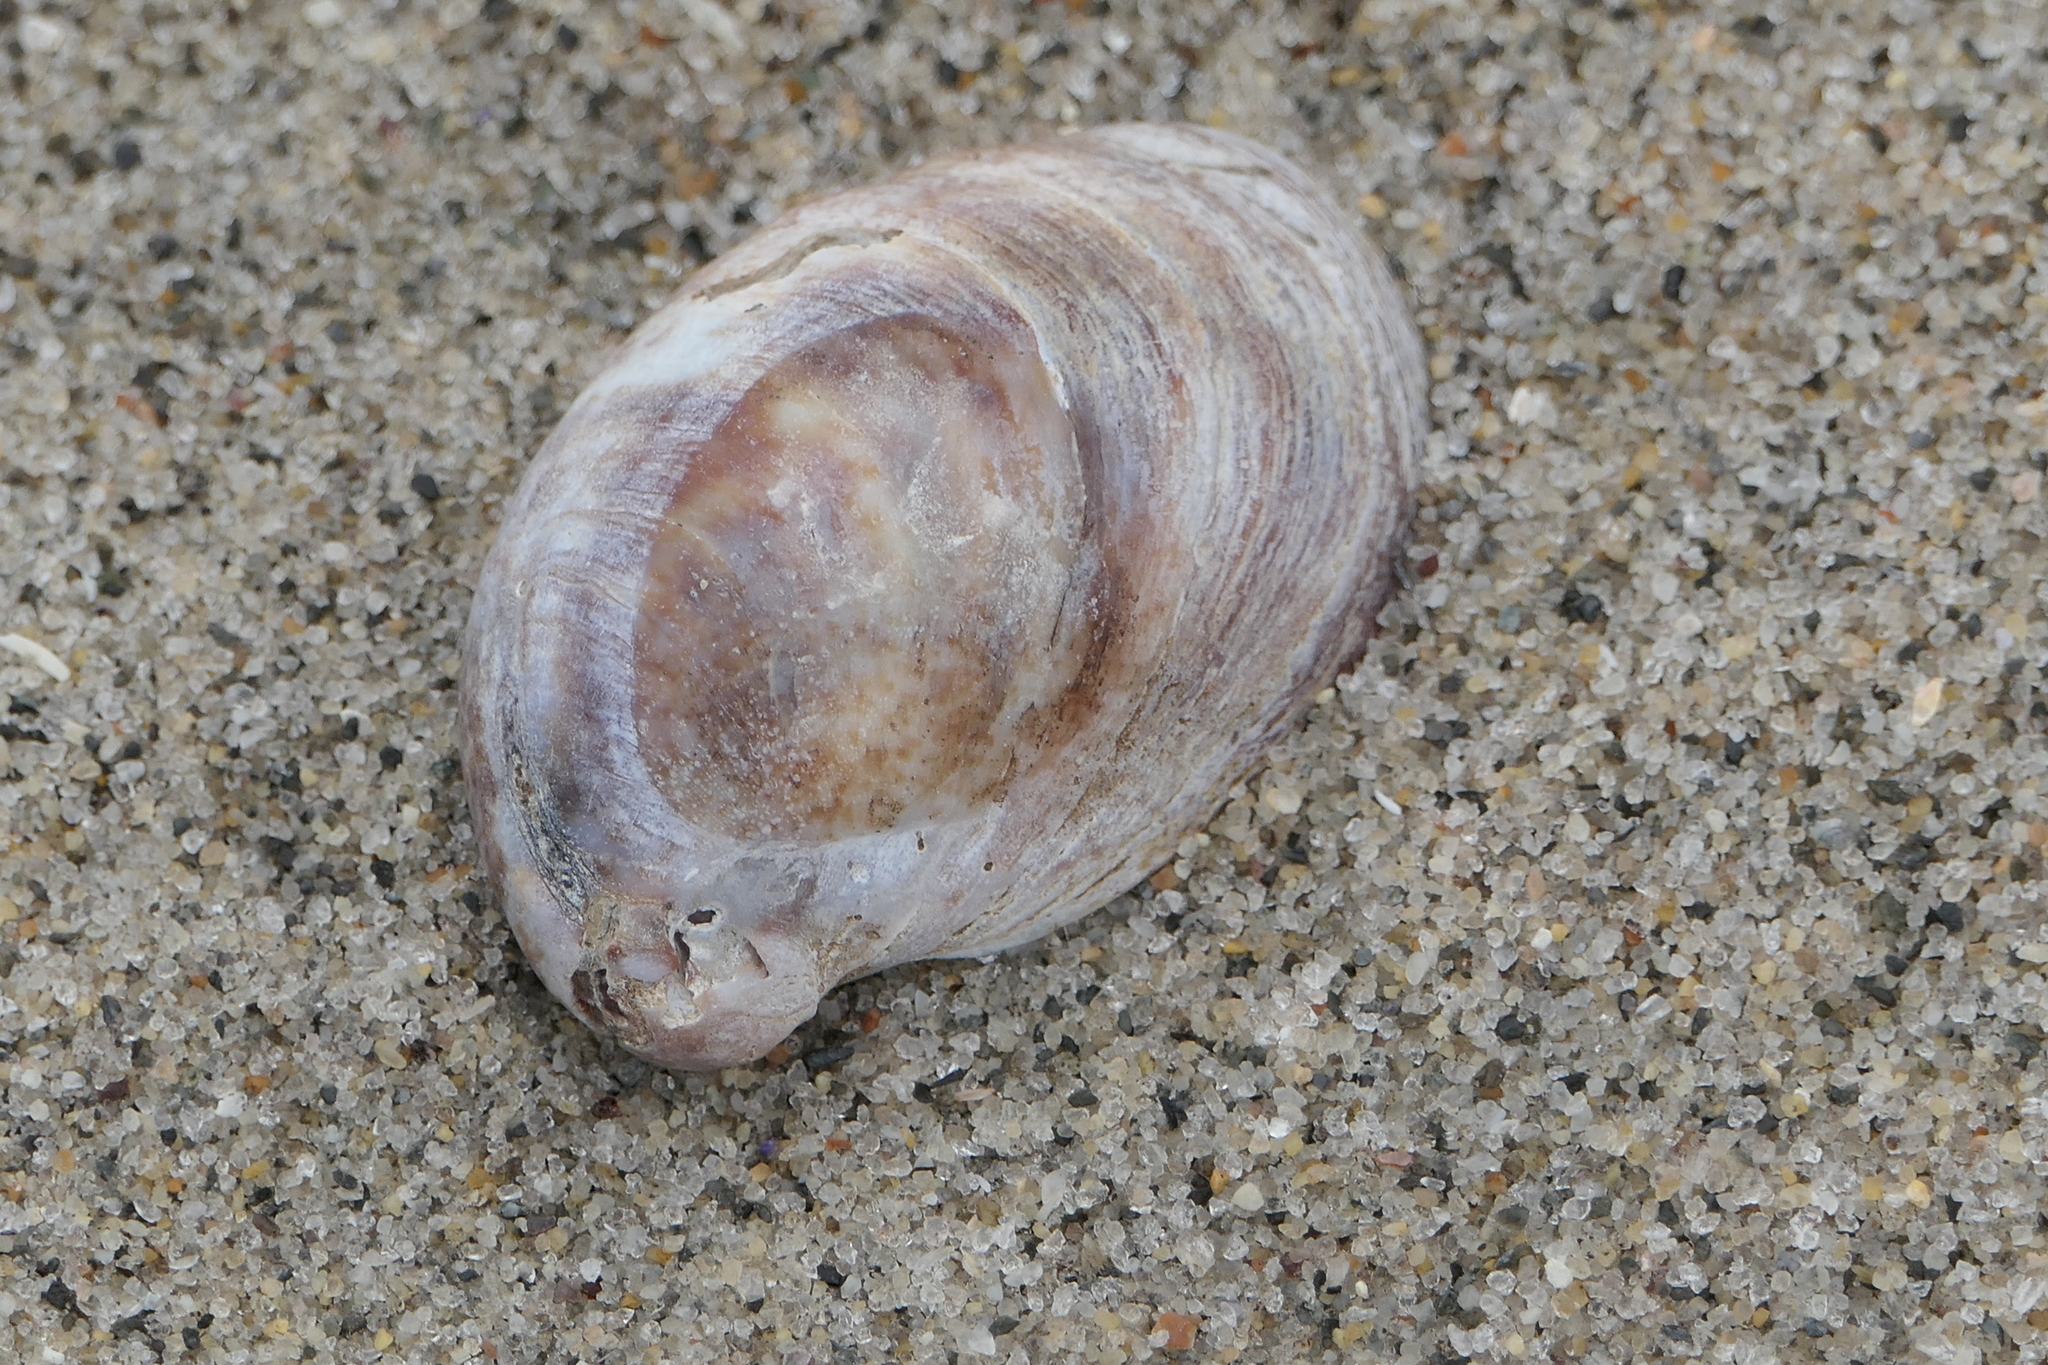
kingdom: Animalia
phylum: Mollusca
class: Gastropoda
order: Littorinimorpha
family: Calyptraeidae
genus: Crepidula
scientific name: Crepidula fornicata
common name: Slipper limpet
